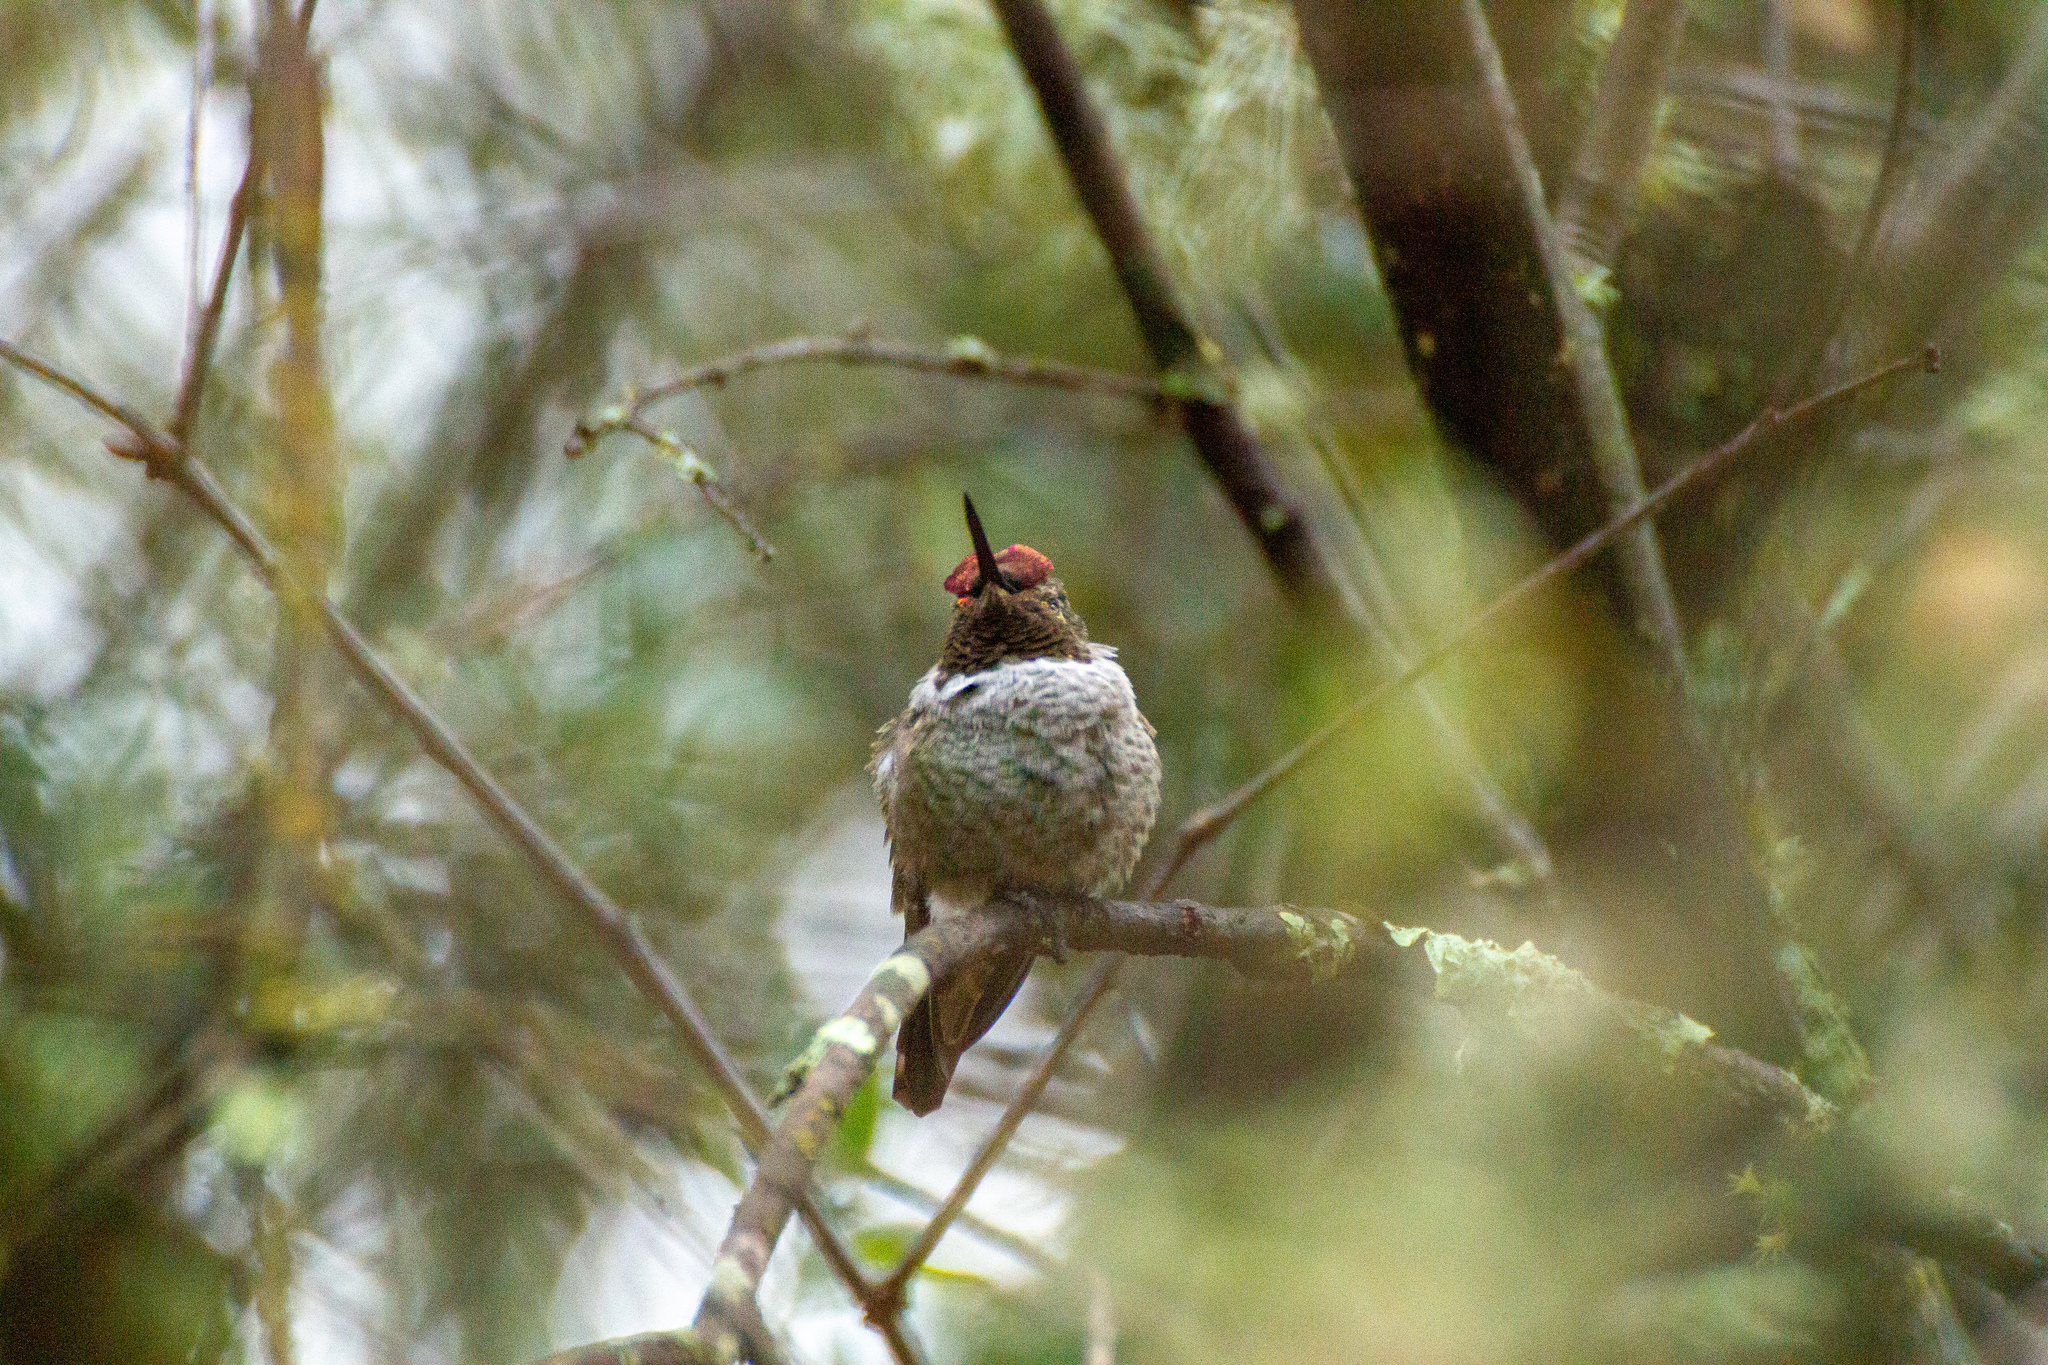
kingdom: Animalia
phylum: Chordata
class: Aves
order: Apodiformes
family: Trochilidae
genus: Calypte
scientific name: Calypte anna
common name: Anna's hummingbird
